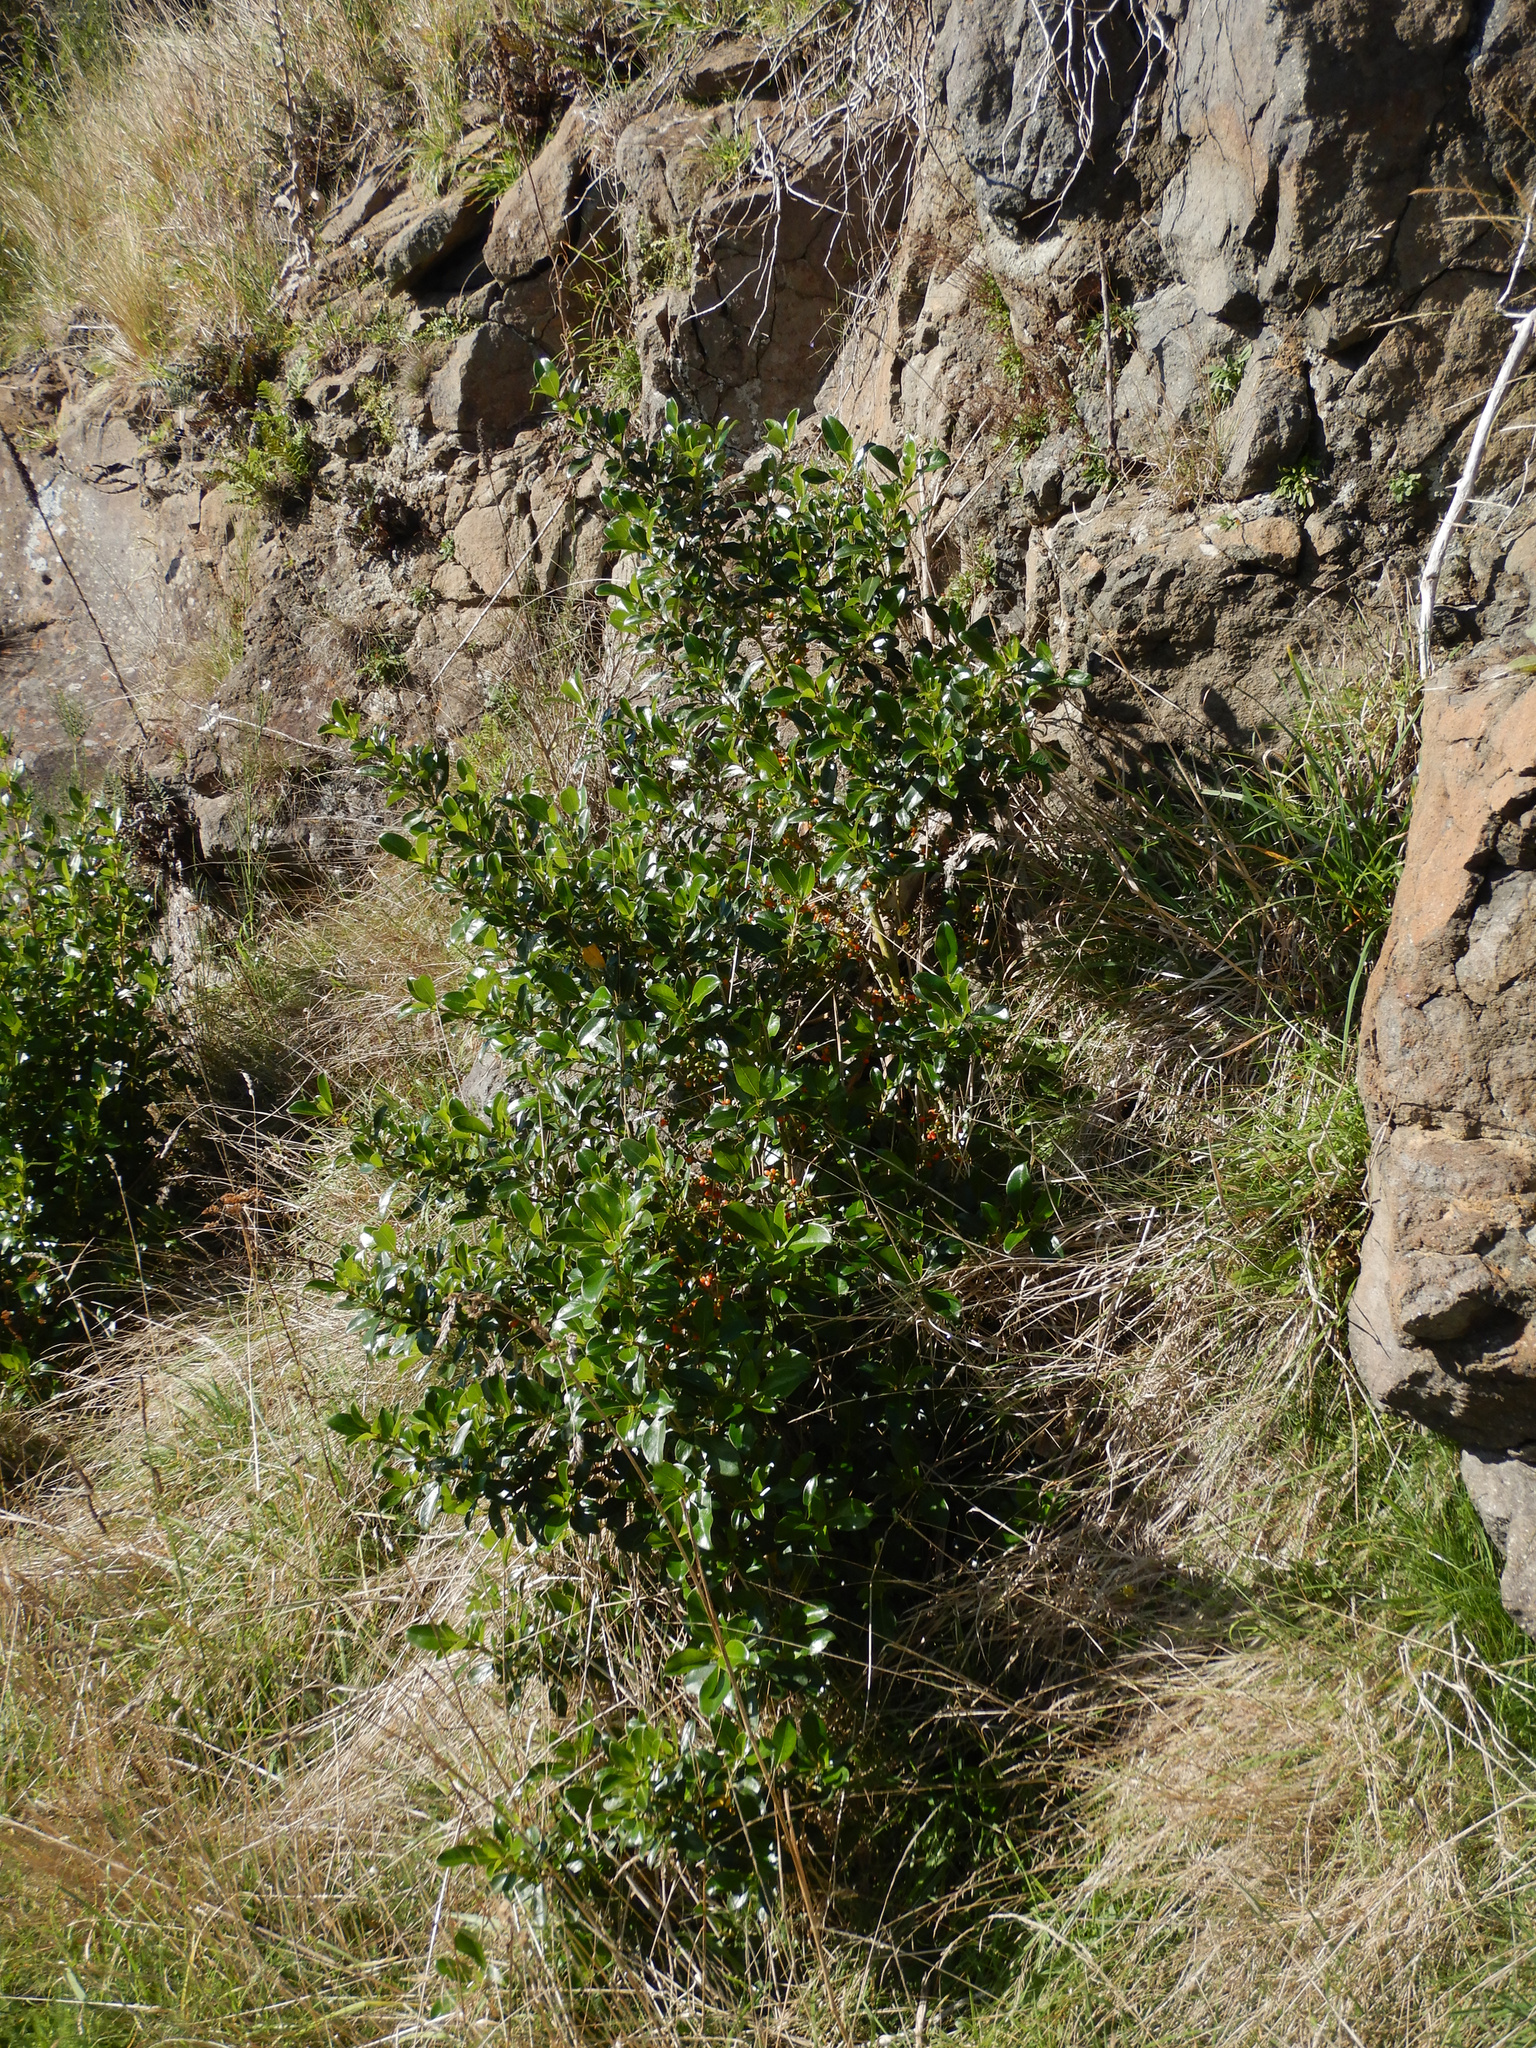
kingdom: Plantae
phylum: Tracheophyta
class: Magnoliopsida
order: Gentianales
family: Rubiaceae
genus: Coprosma
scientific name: Coprosma robusta
